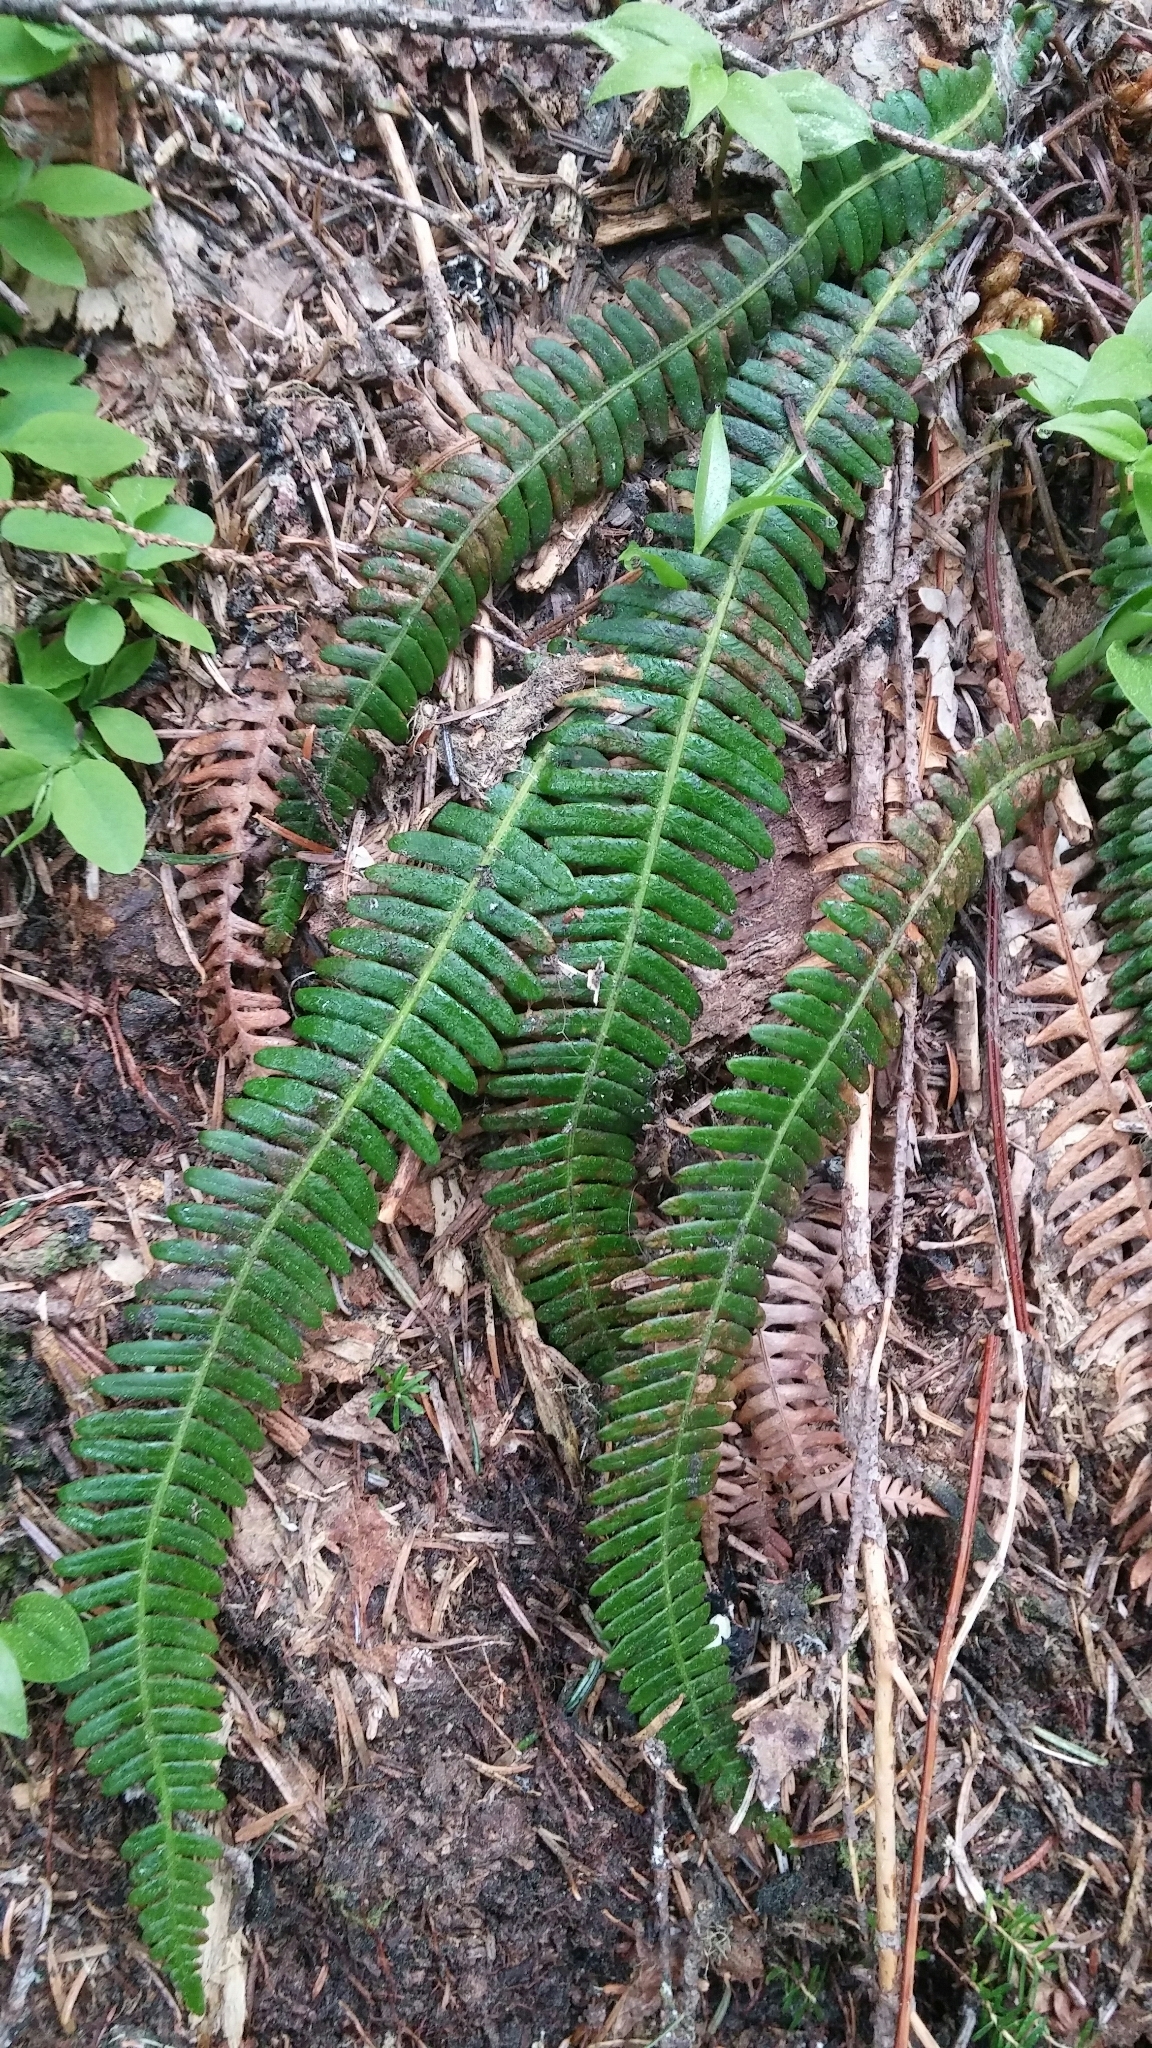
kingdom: Plantae
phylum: Tracheophyta
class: Polypodiopsida
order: Polypodiales
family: Blechnaceae
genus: Struthiopteris
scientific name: Struthiopteris spicant
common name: Deer fern
